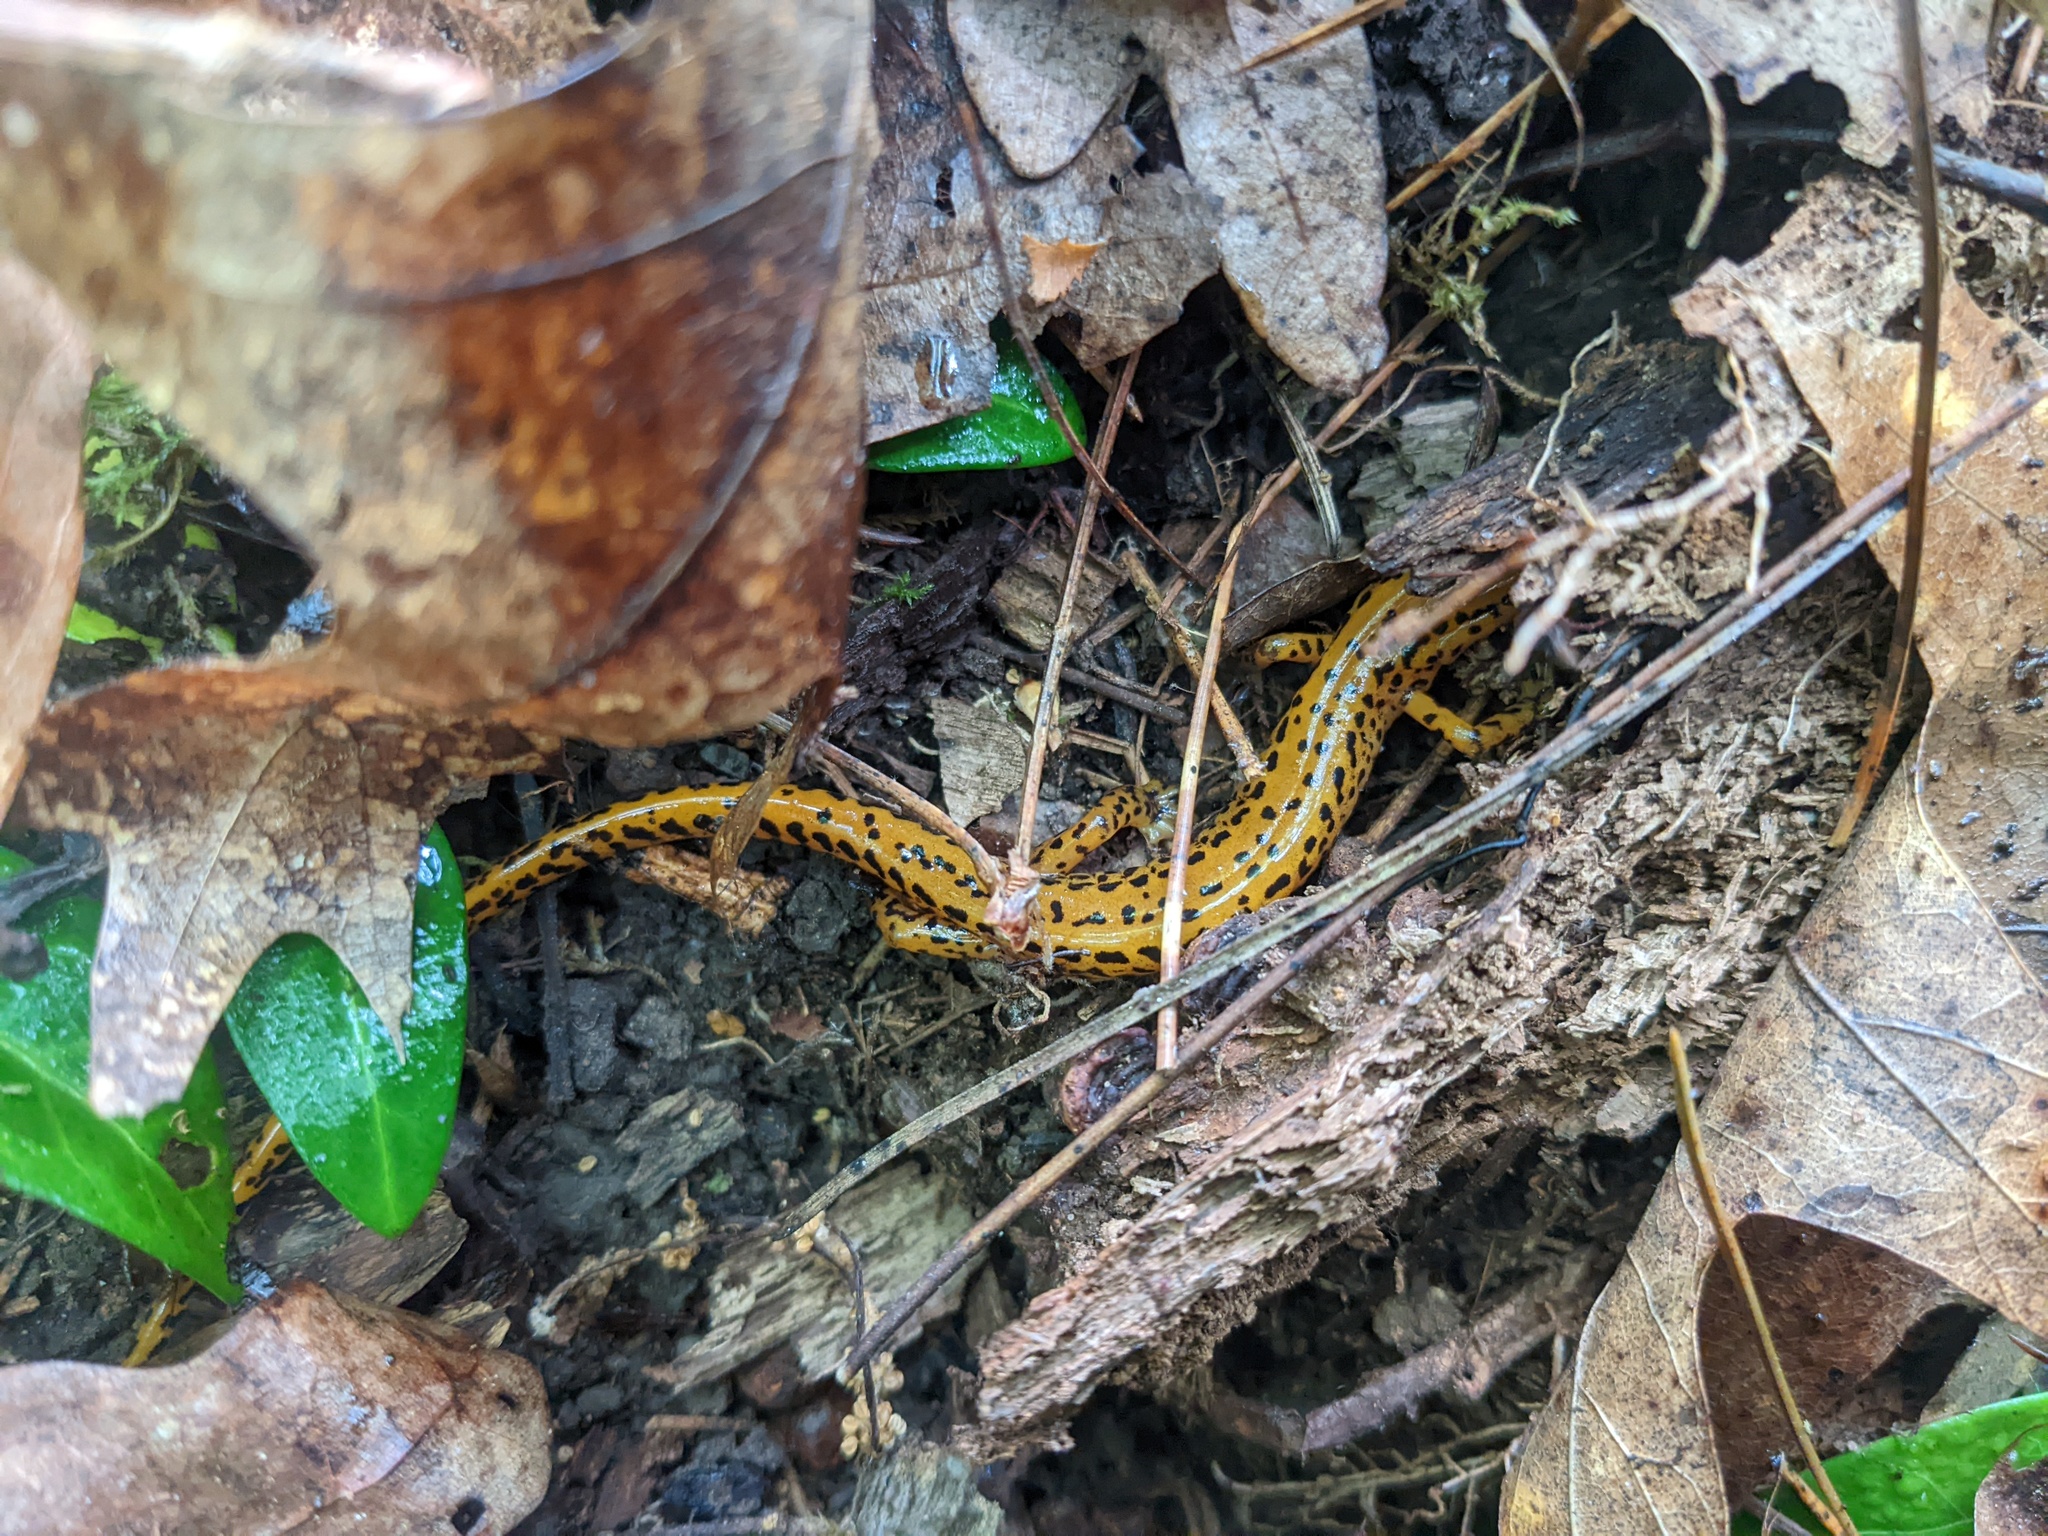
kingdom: Animalia
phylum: Chordata
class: Amphibia
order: Caudata
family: Plethodontidae
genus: Eurycea
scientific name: Eurycea longicauda
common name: Long-tailed salamander
